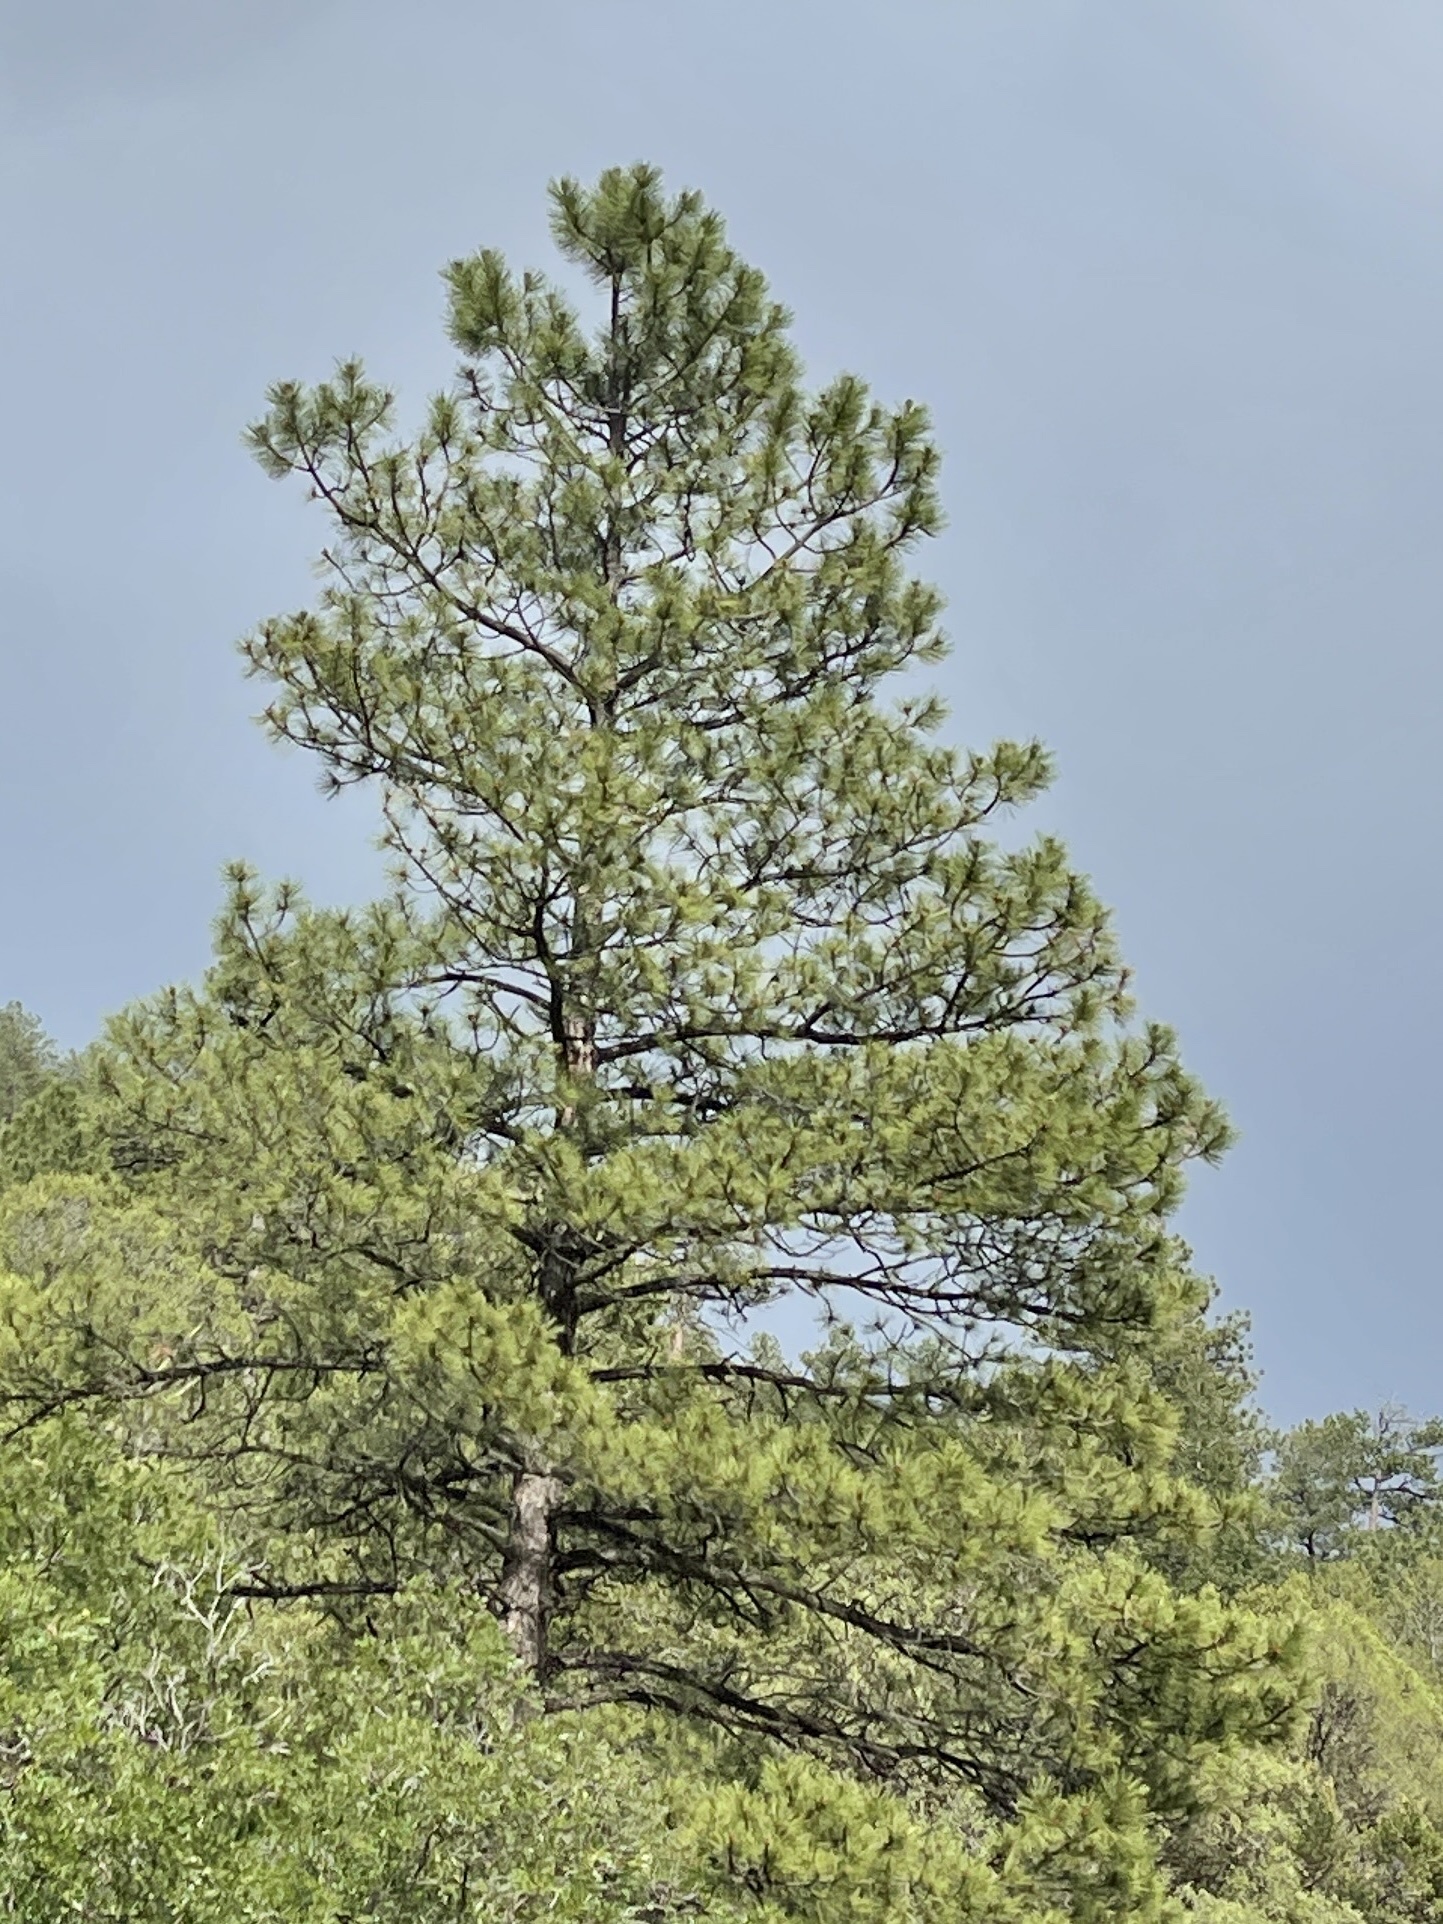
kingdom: Plantae
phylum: Tracheophyta
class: Pinopsida
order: Pinales
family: Pinaceae
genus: Pinus
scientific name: Pinus ponderosa
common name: Western yellow-pine
